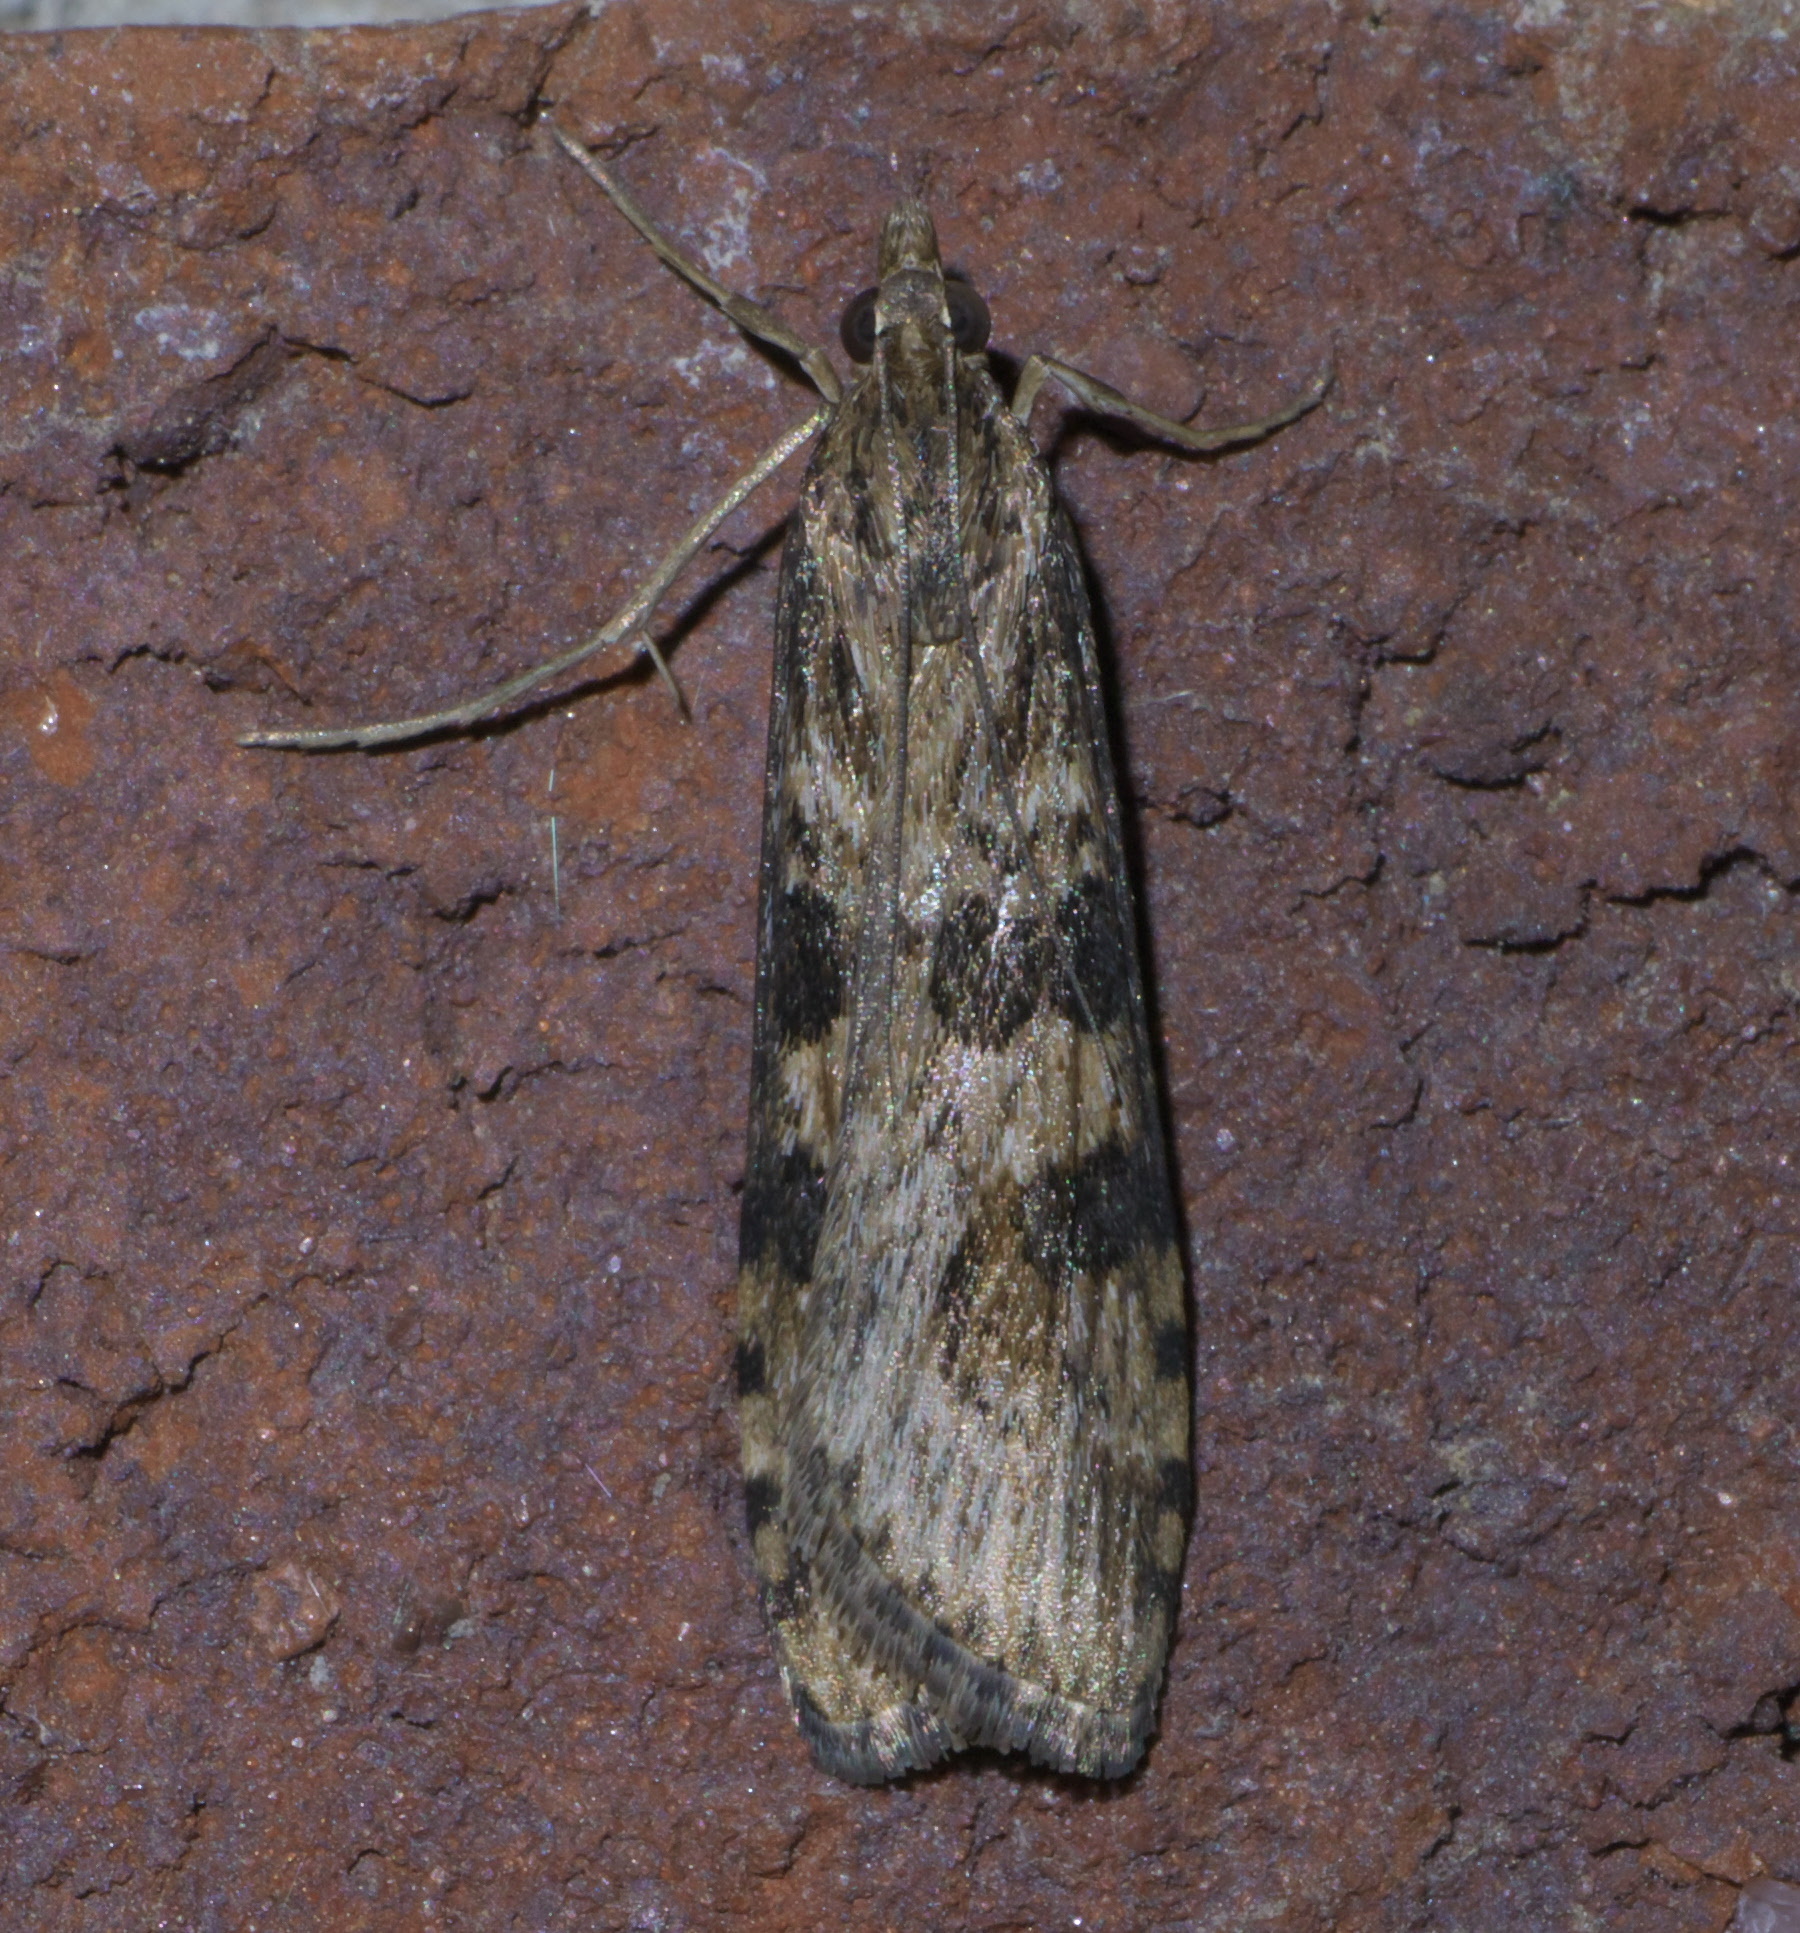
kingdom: Animalia
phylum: Arthropoda
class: Insecta
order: Lepidoptera
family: Crambidae
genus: Nomophila
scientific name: Nomophila nearctica
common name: American rush veneer
